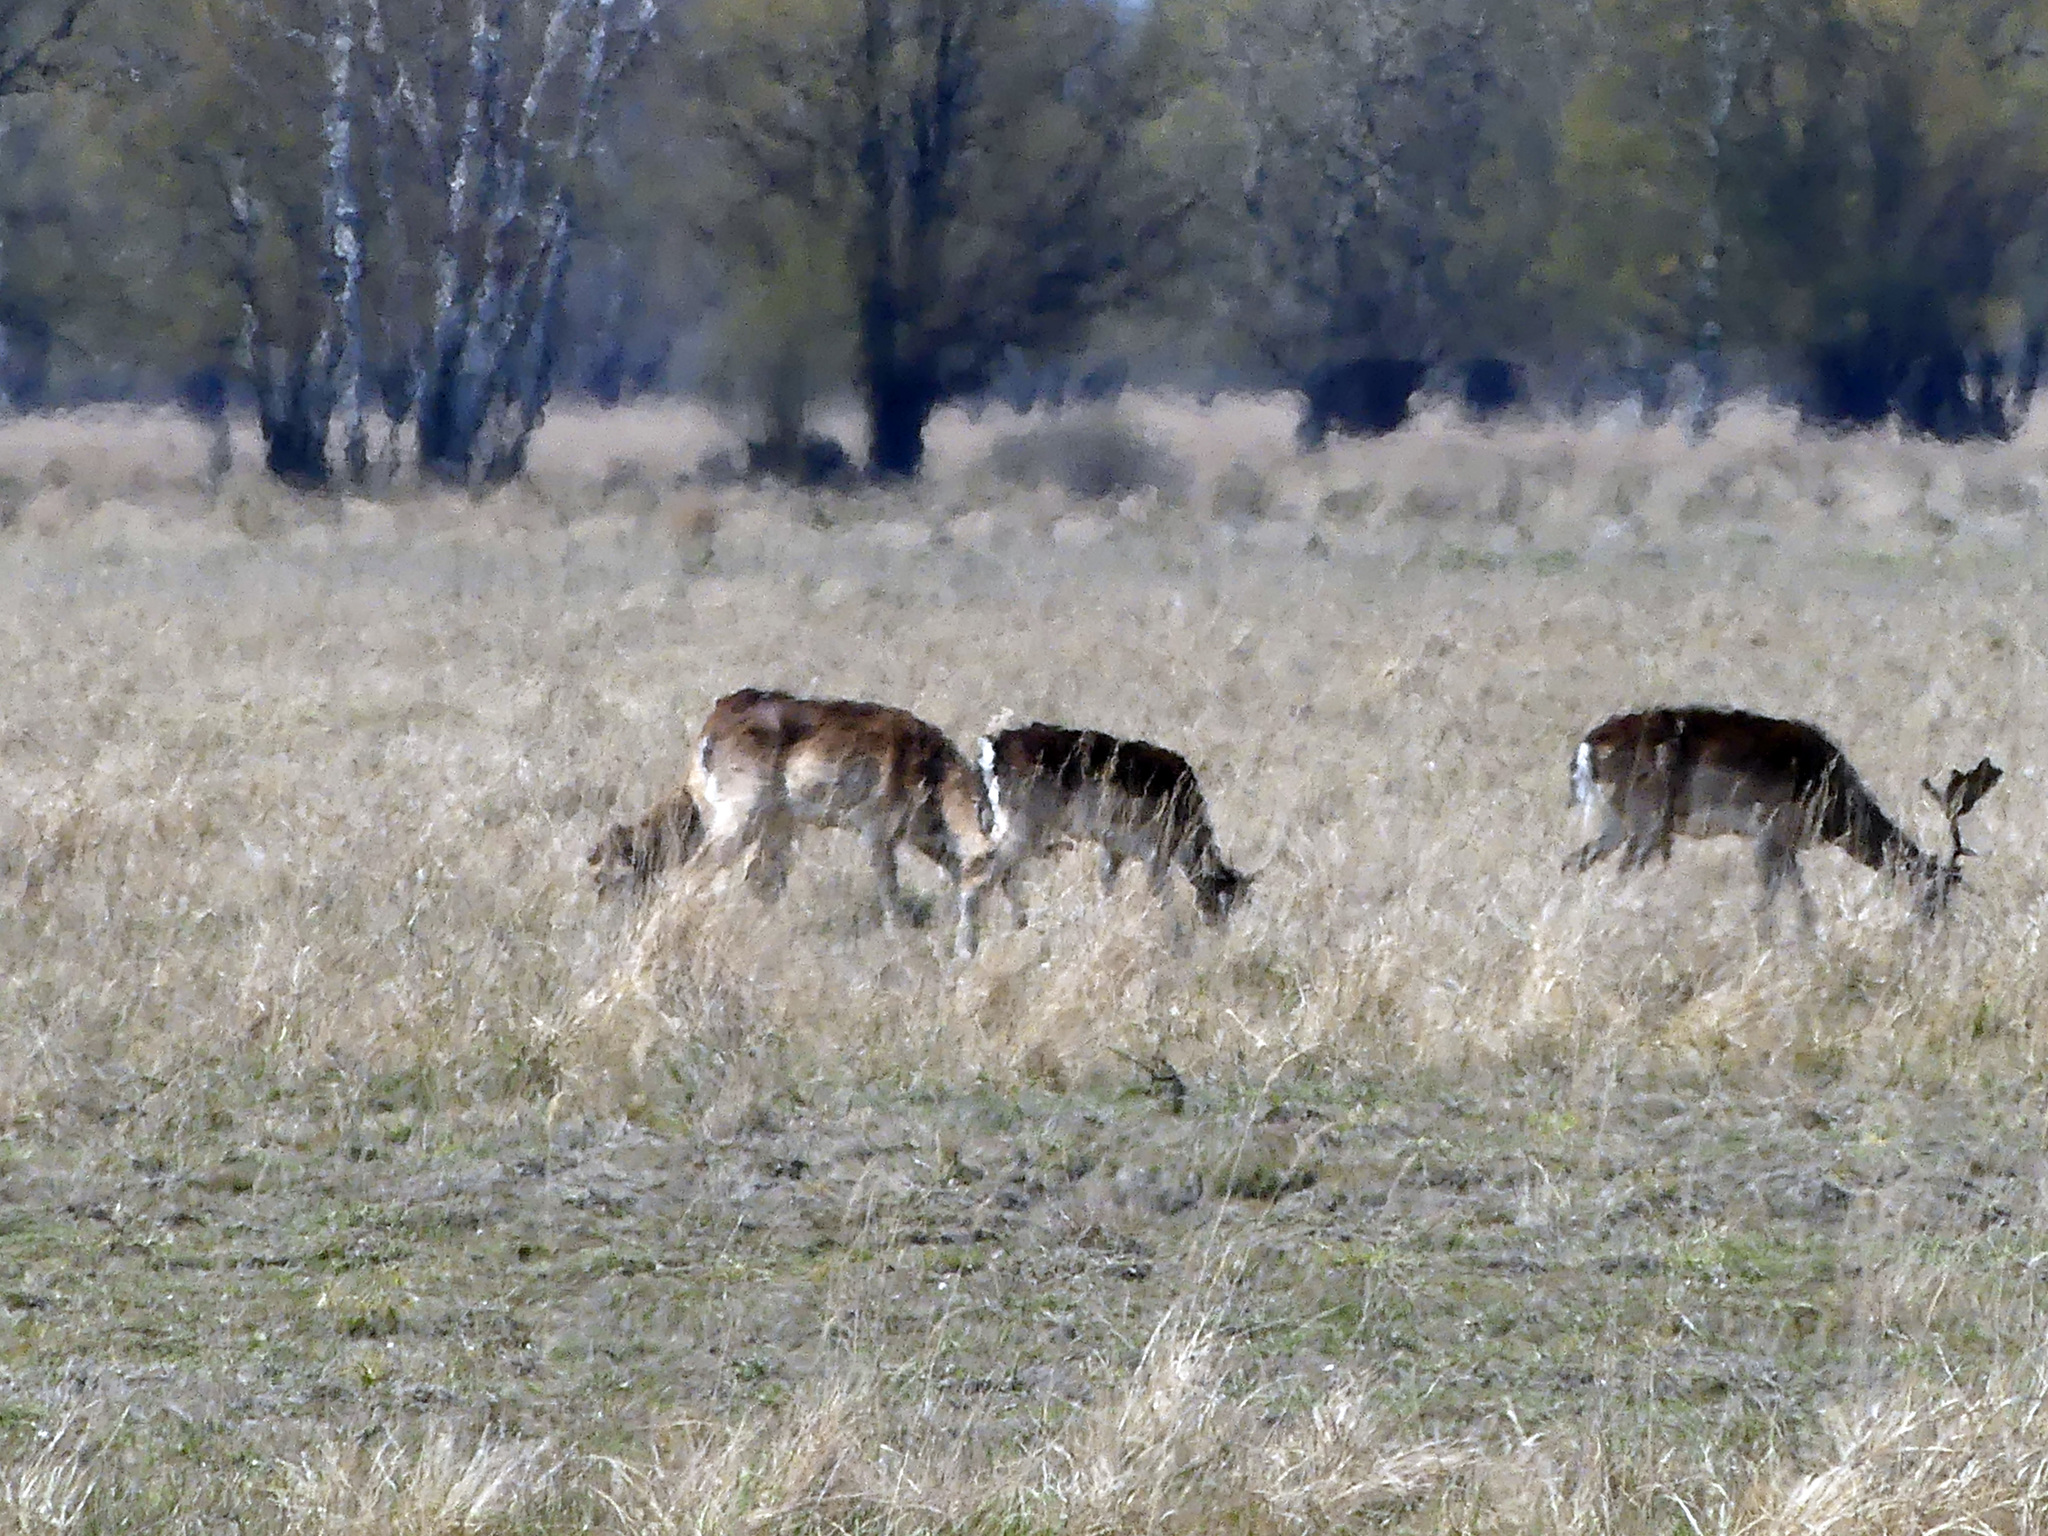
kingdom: Animalia
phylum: Chordata
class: Mammalia
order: Artiodactyla
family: Cervidae
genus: Dama
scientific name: Dama dama
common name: Fallow deer
